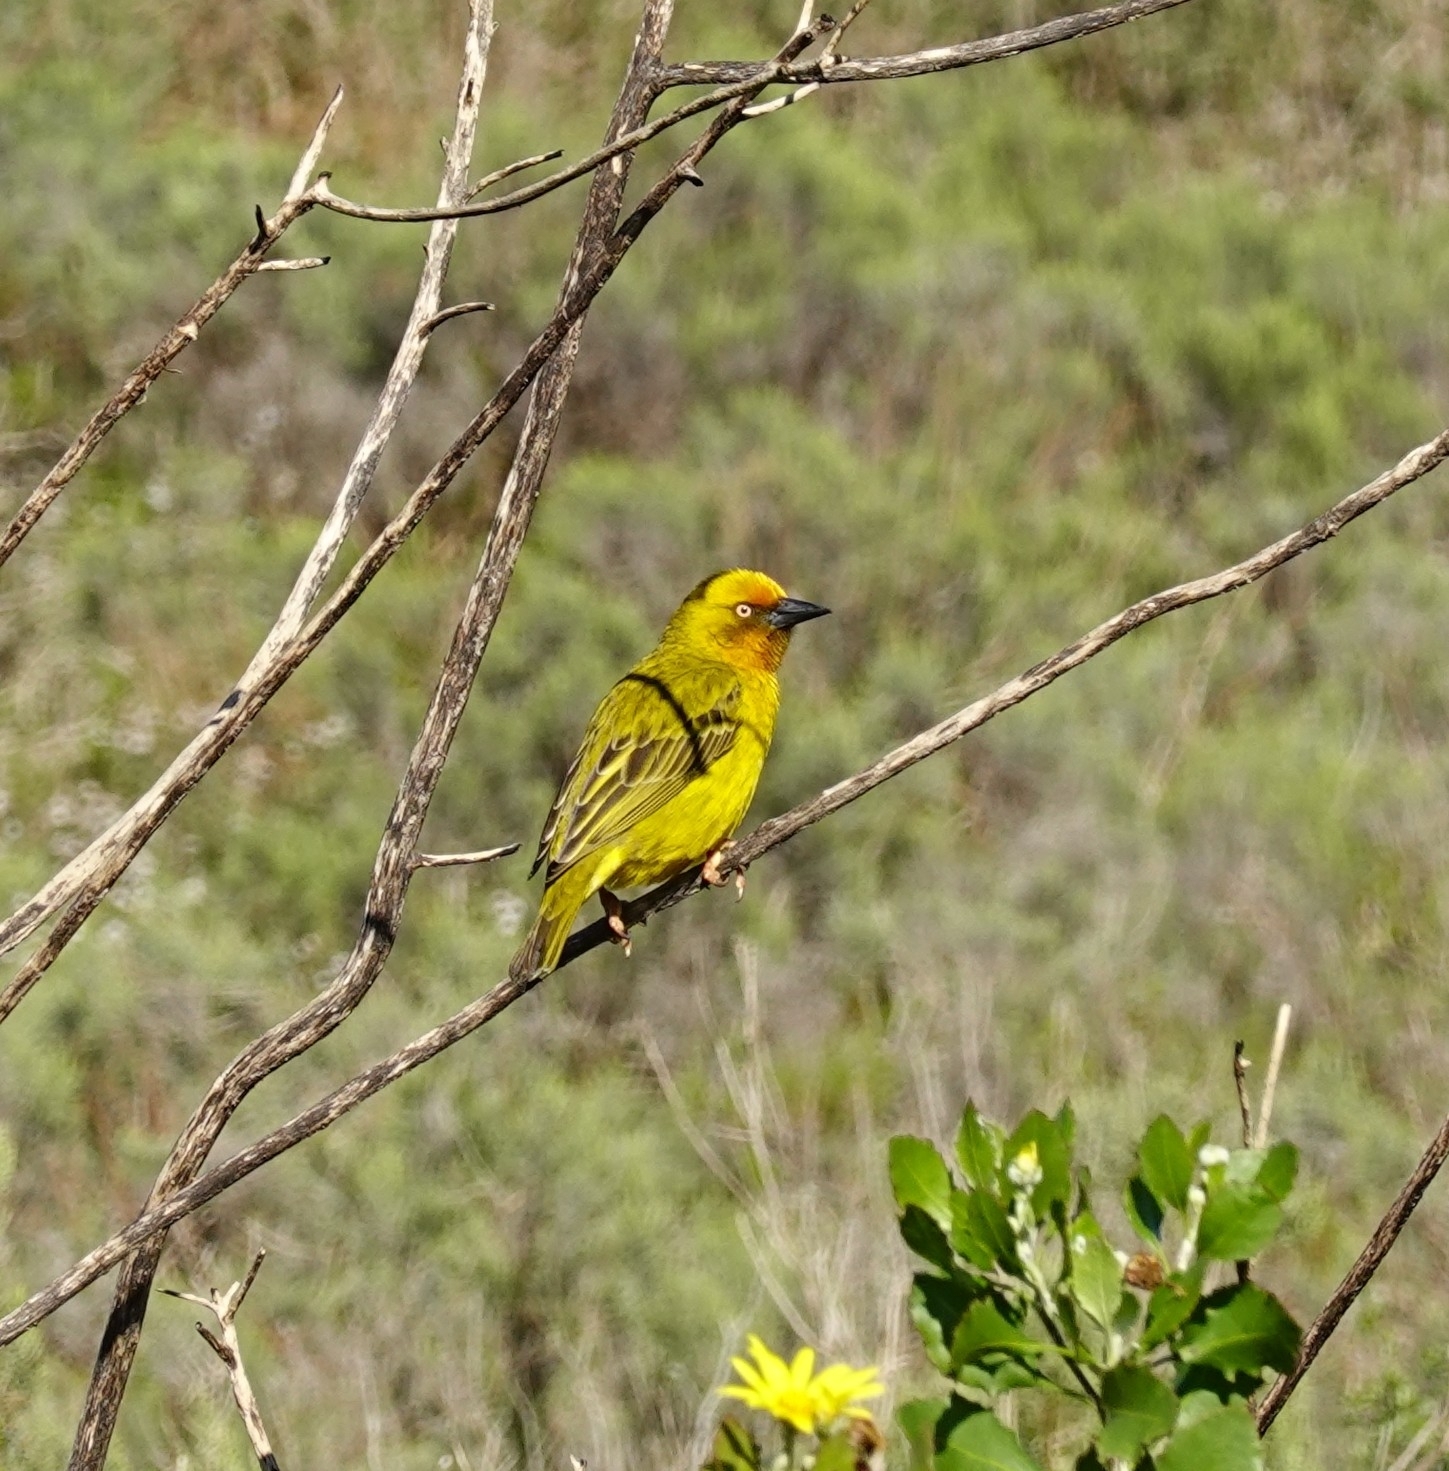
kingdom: Animalia
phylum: Chordata
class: Aves
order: Passeriformes
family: Ploceidae
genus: Ploceus
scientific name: Ploceus capensis
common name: Cape weaver
